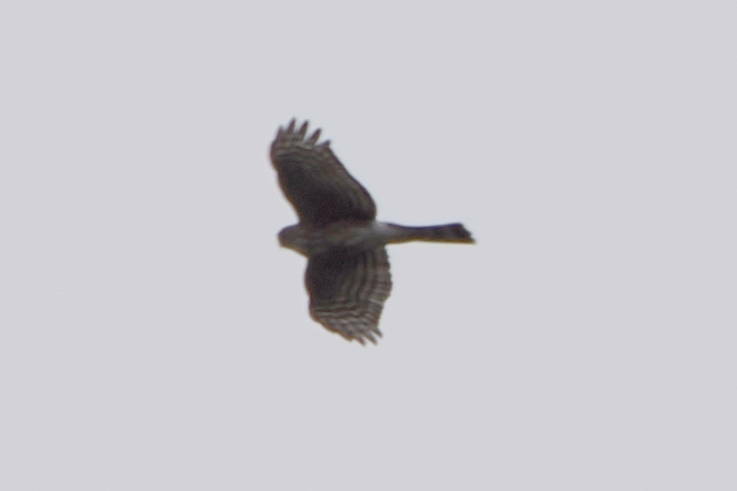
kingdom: Animalia
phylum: Chordata
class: Aves
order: Accipitriformes
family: Accipitridae
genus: Accipiter
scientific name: Accipiter striatus
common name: Sharp-shinned hawk
